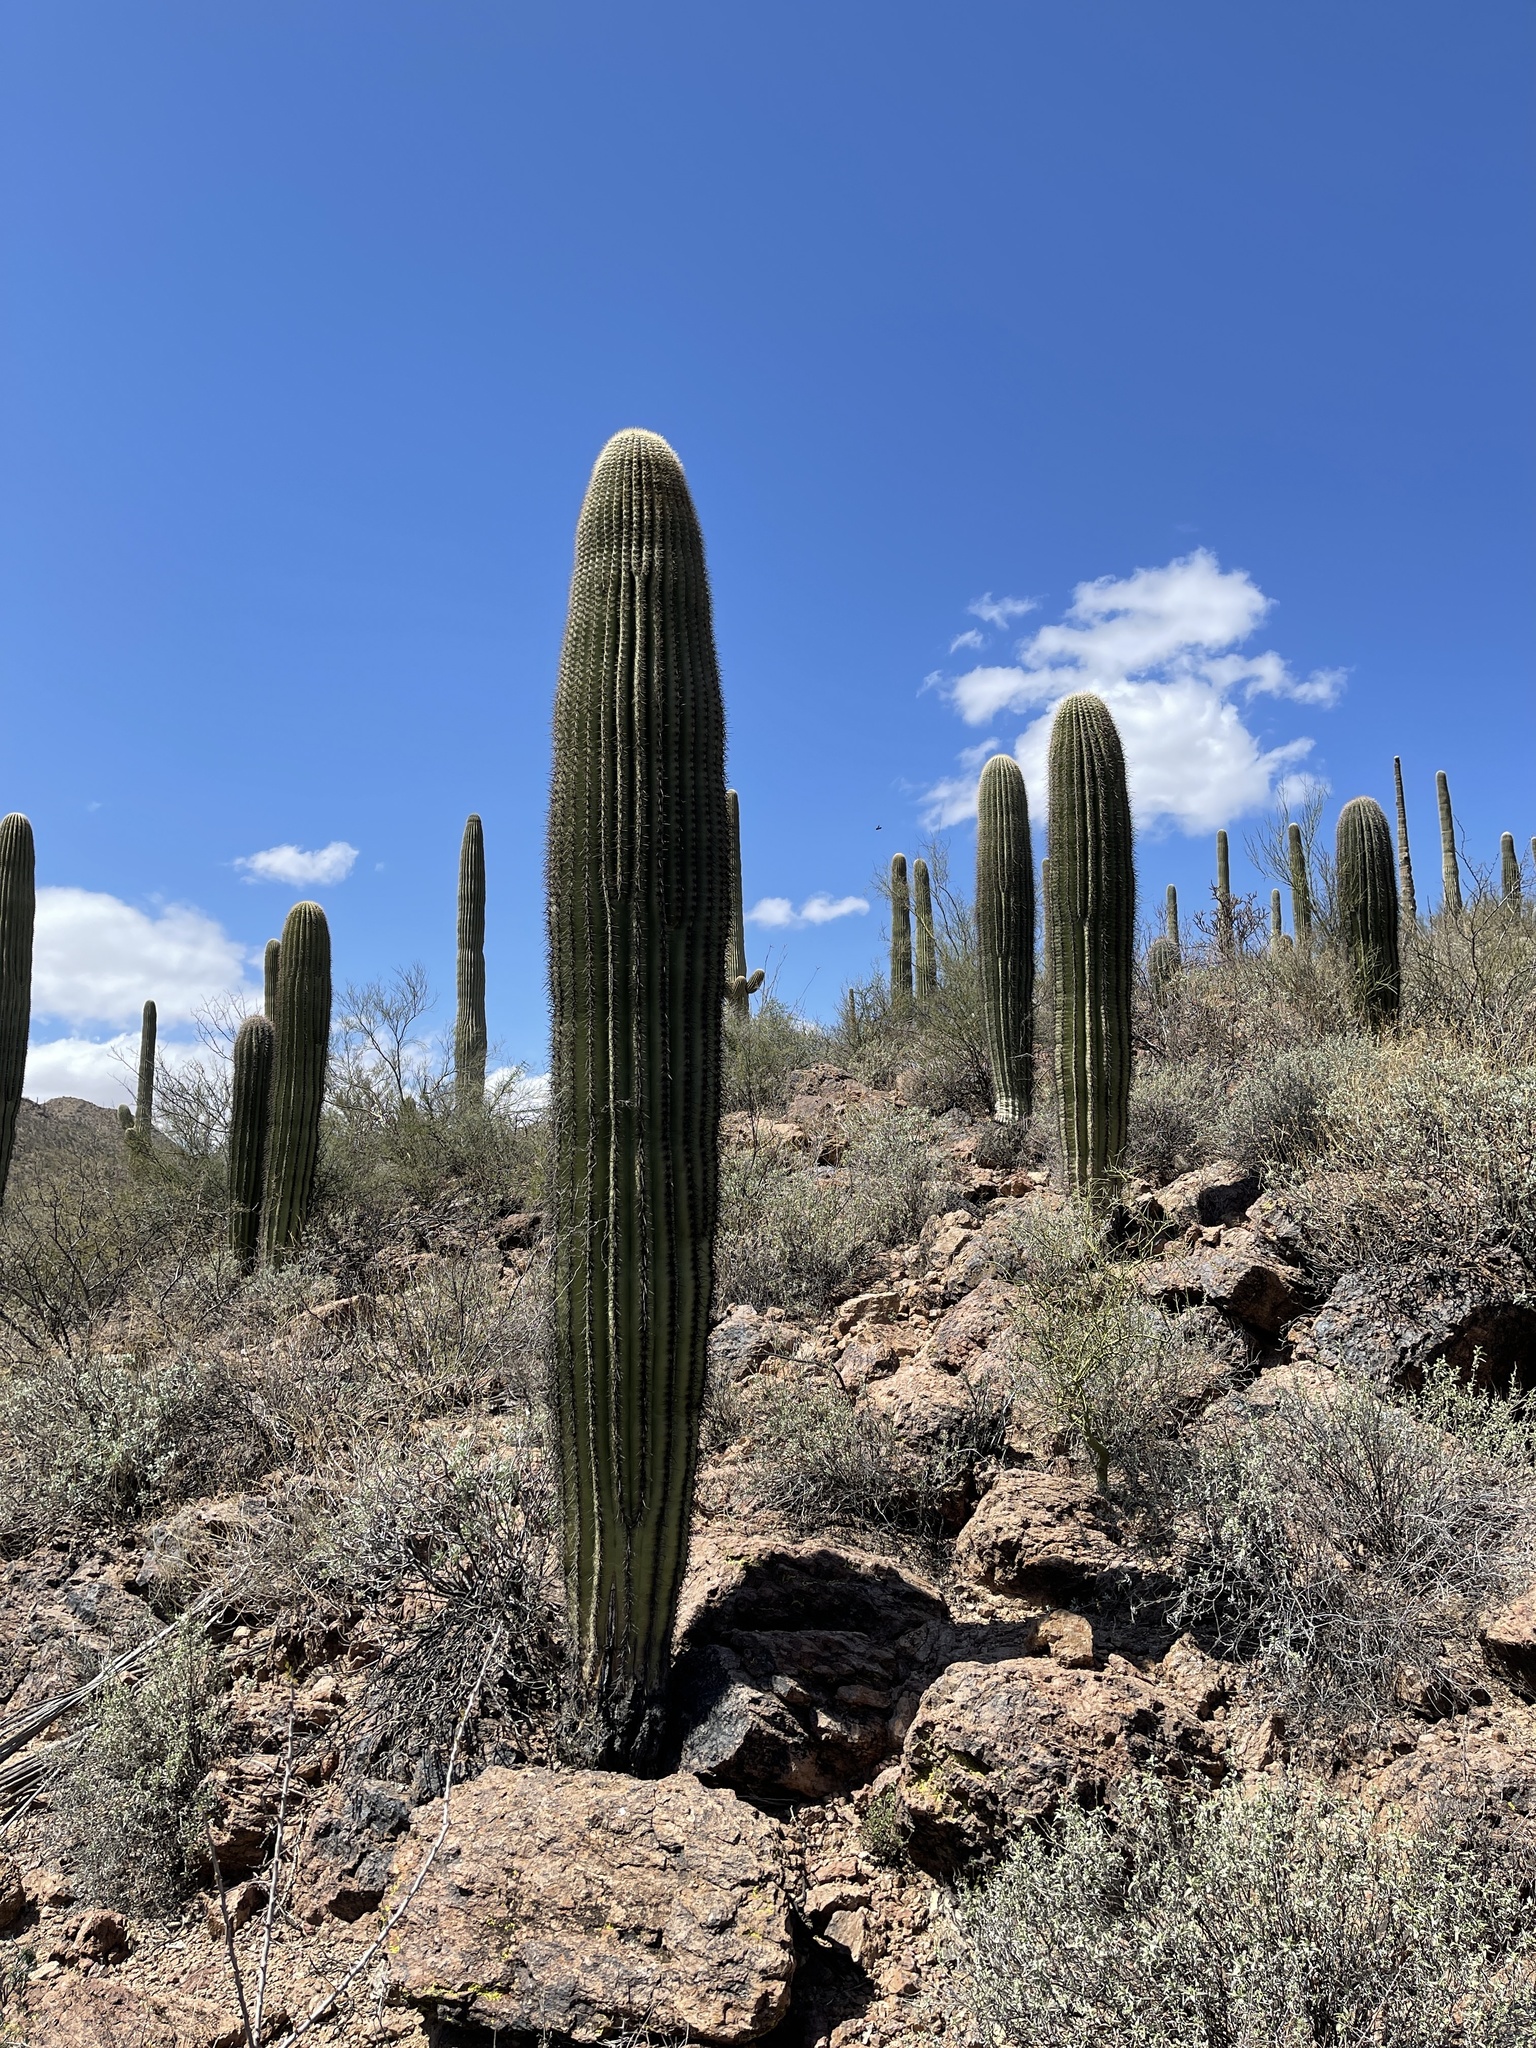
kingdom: Plantae
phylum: Tracheophyta
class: Magnoliopsida
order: Caryophyllales
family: Cactaceae
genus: Carnegiea
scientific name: Carnegiea gigantea
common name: Saguaro
